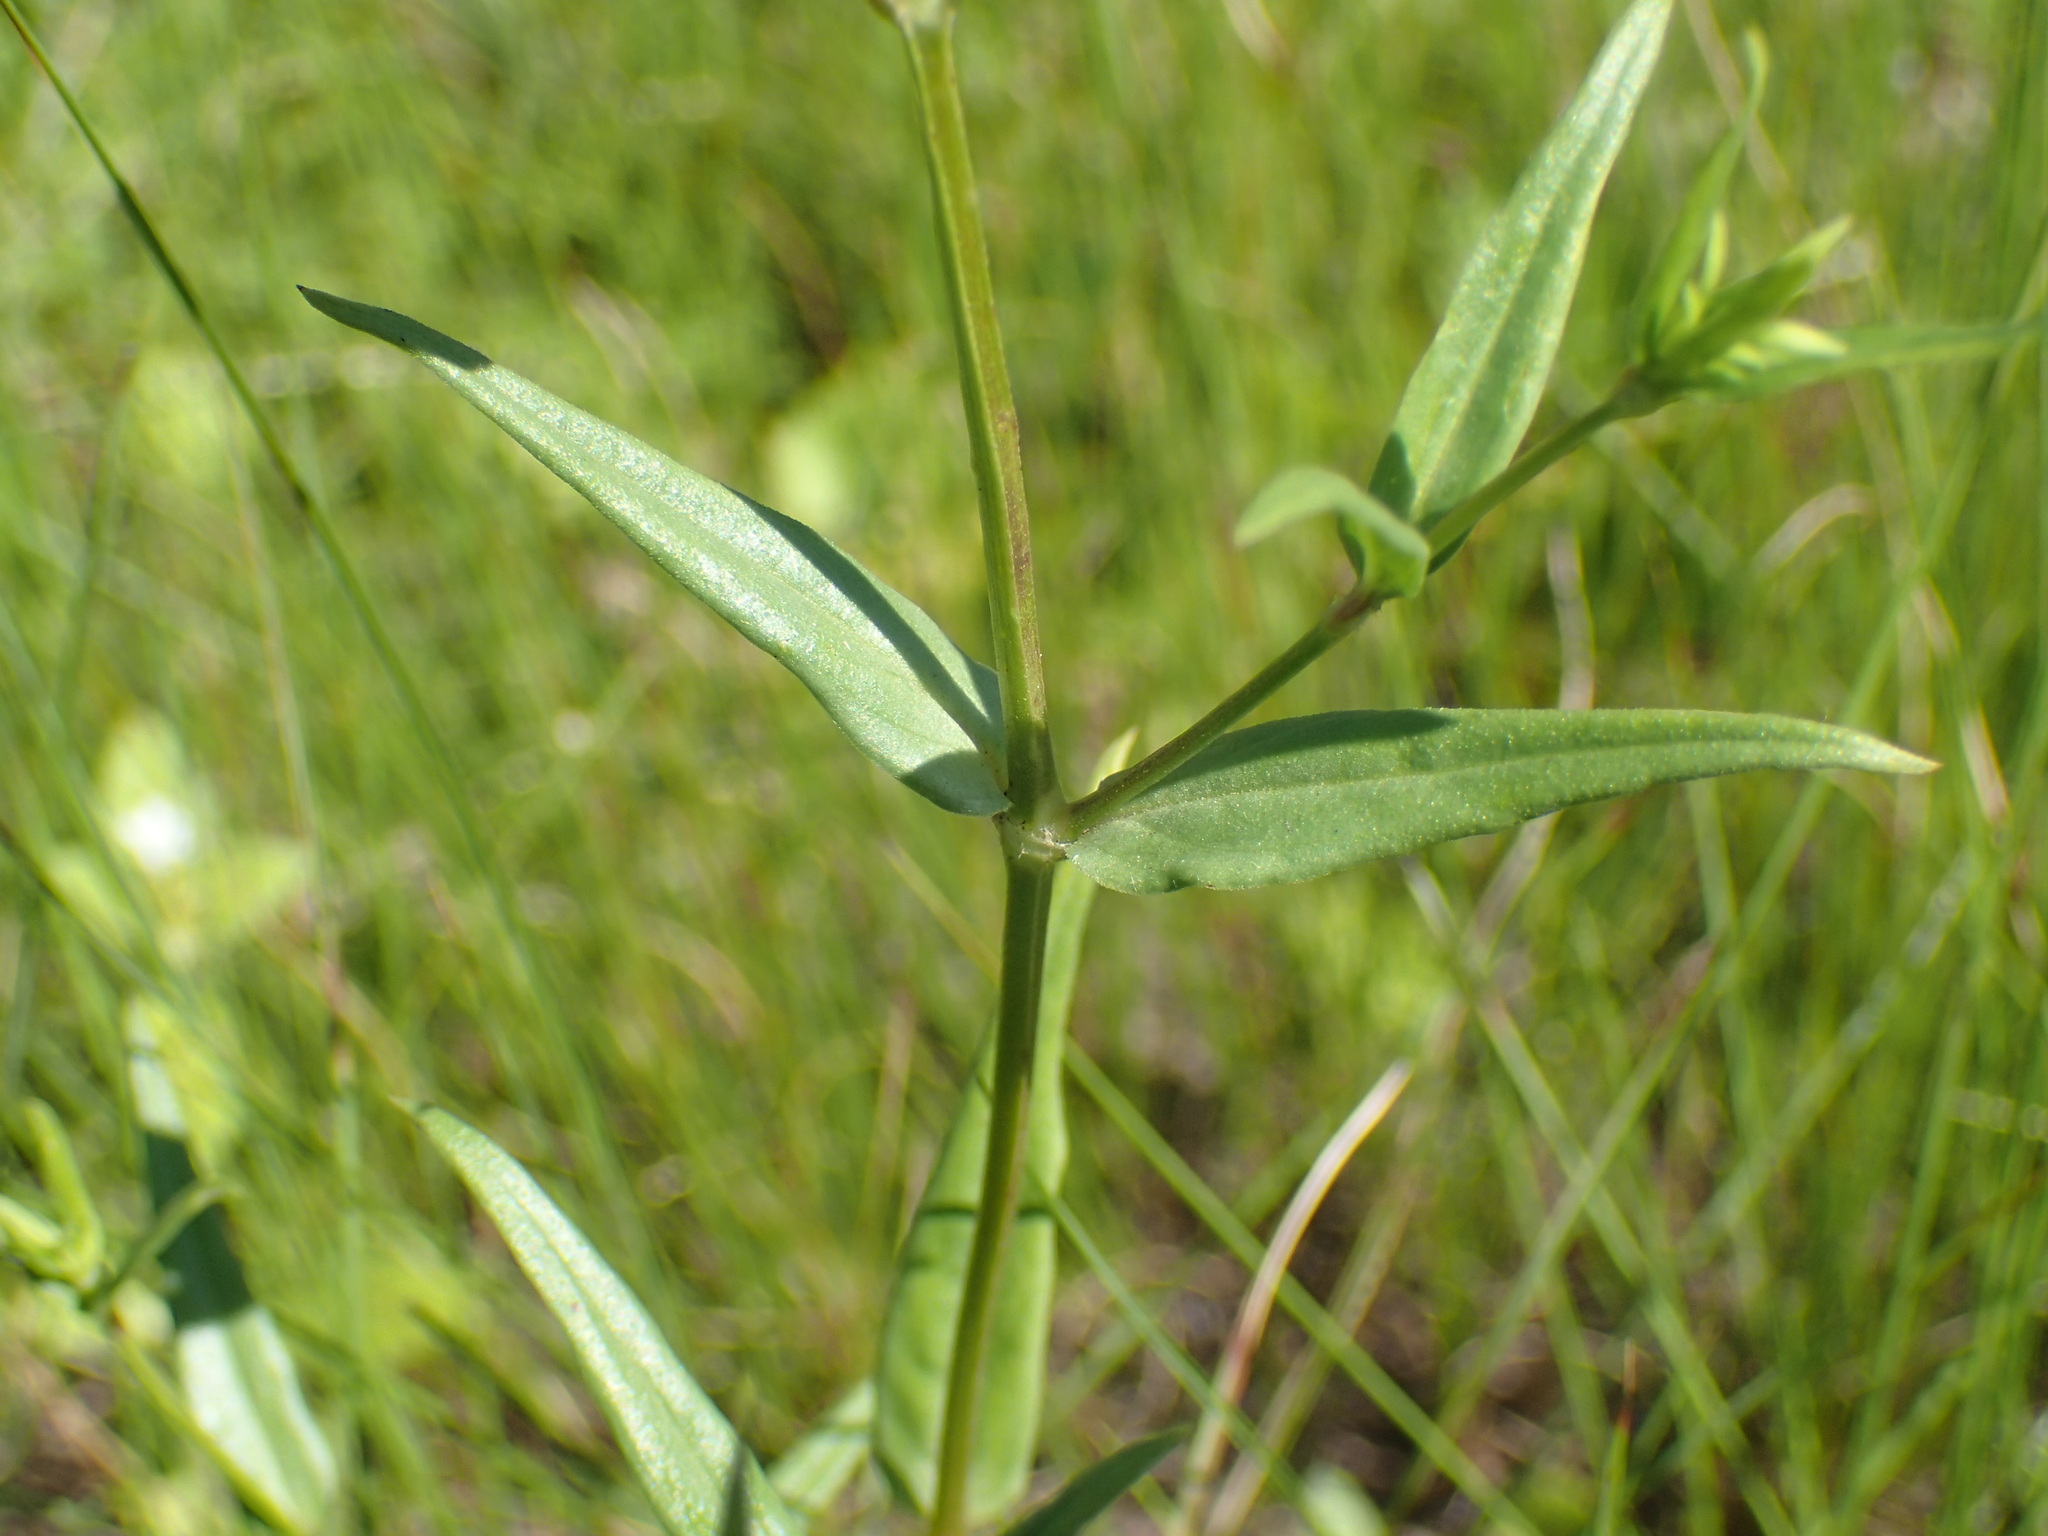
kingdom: Plantae
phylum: Tracheophyta
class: Magnoliopsida
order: Gentianales
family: Rubiaceae
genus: Conostomium
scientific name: Conostomium natalense
